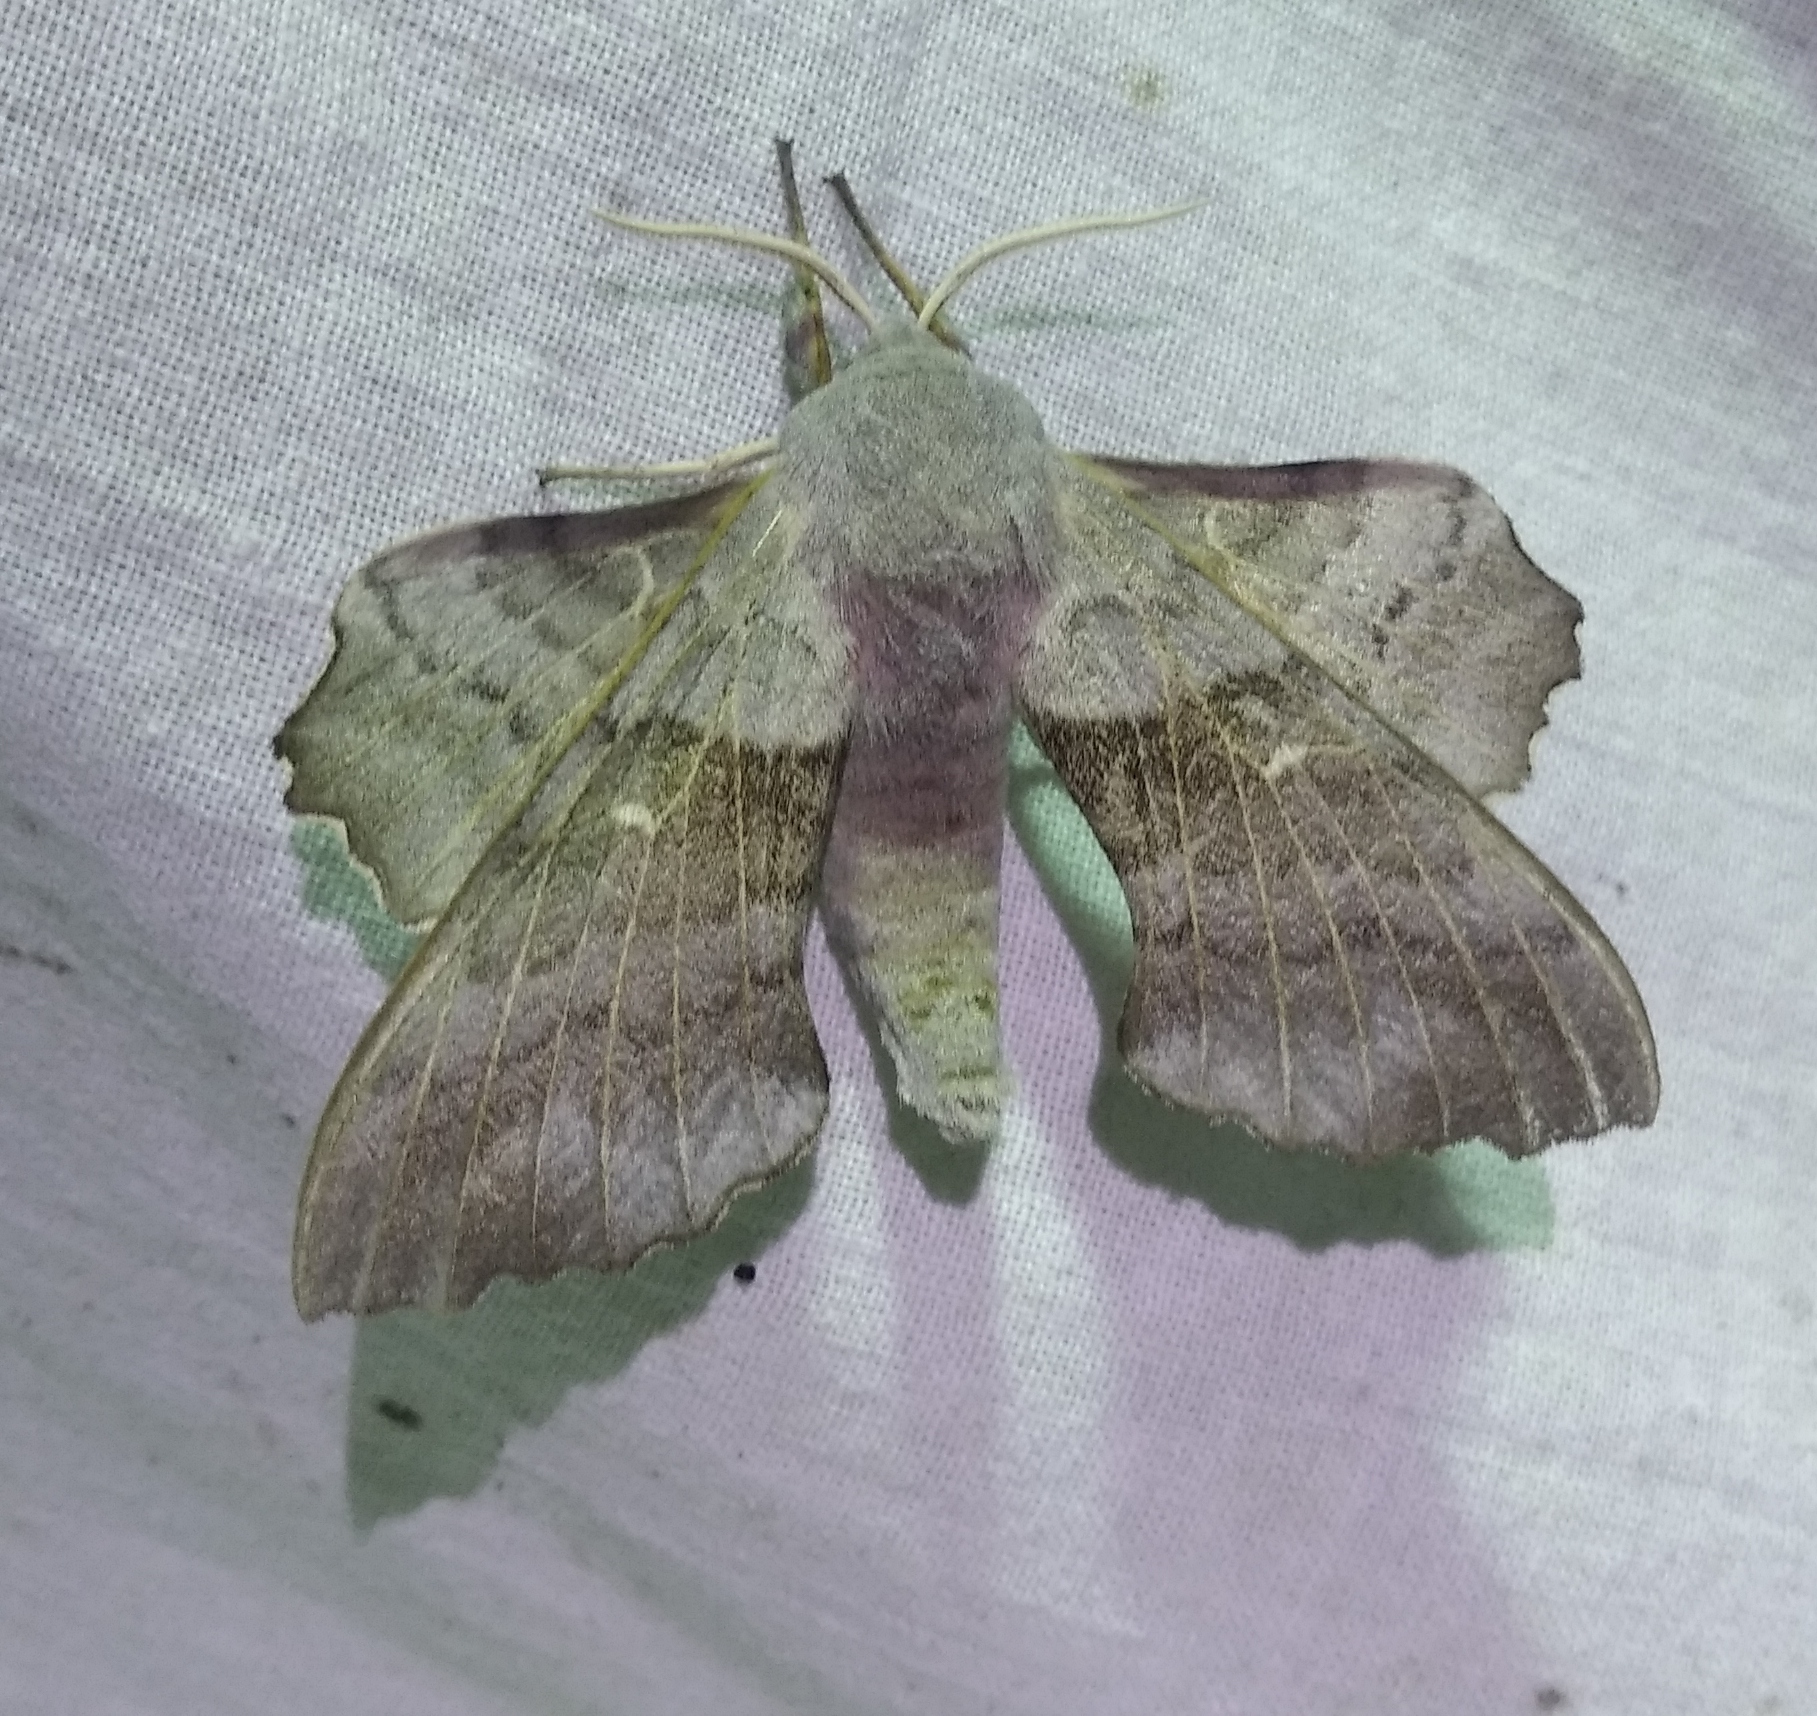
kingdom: Animalia
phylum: Arthropoda
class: Insecta
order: Lepidoptera
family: Sphingidae
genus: Laothoe
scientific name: Laothoe populi
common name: Poplar hawk-moth
